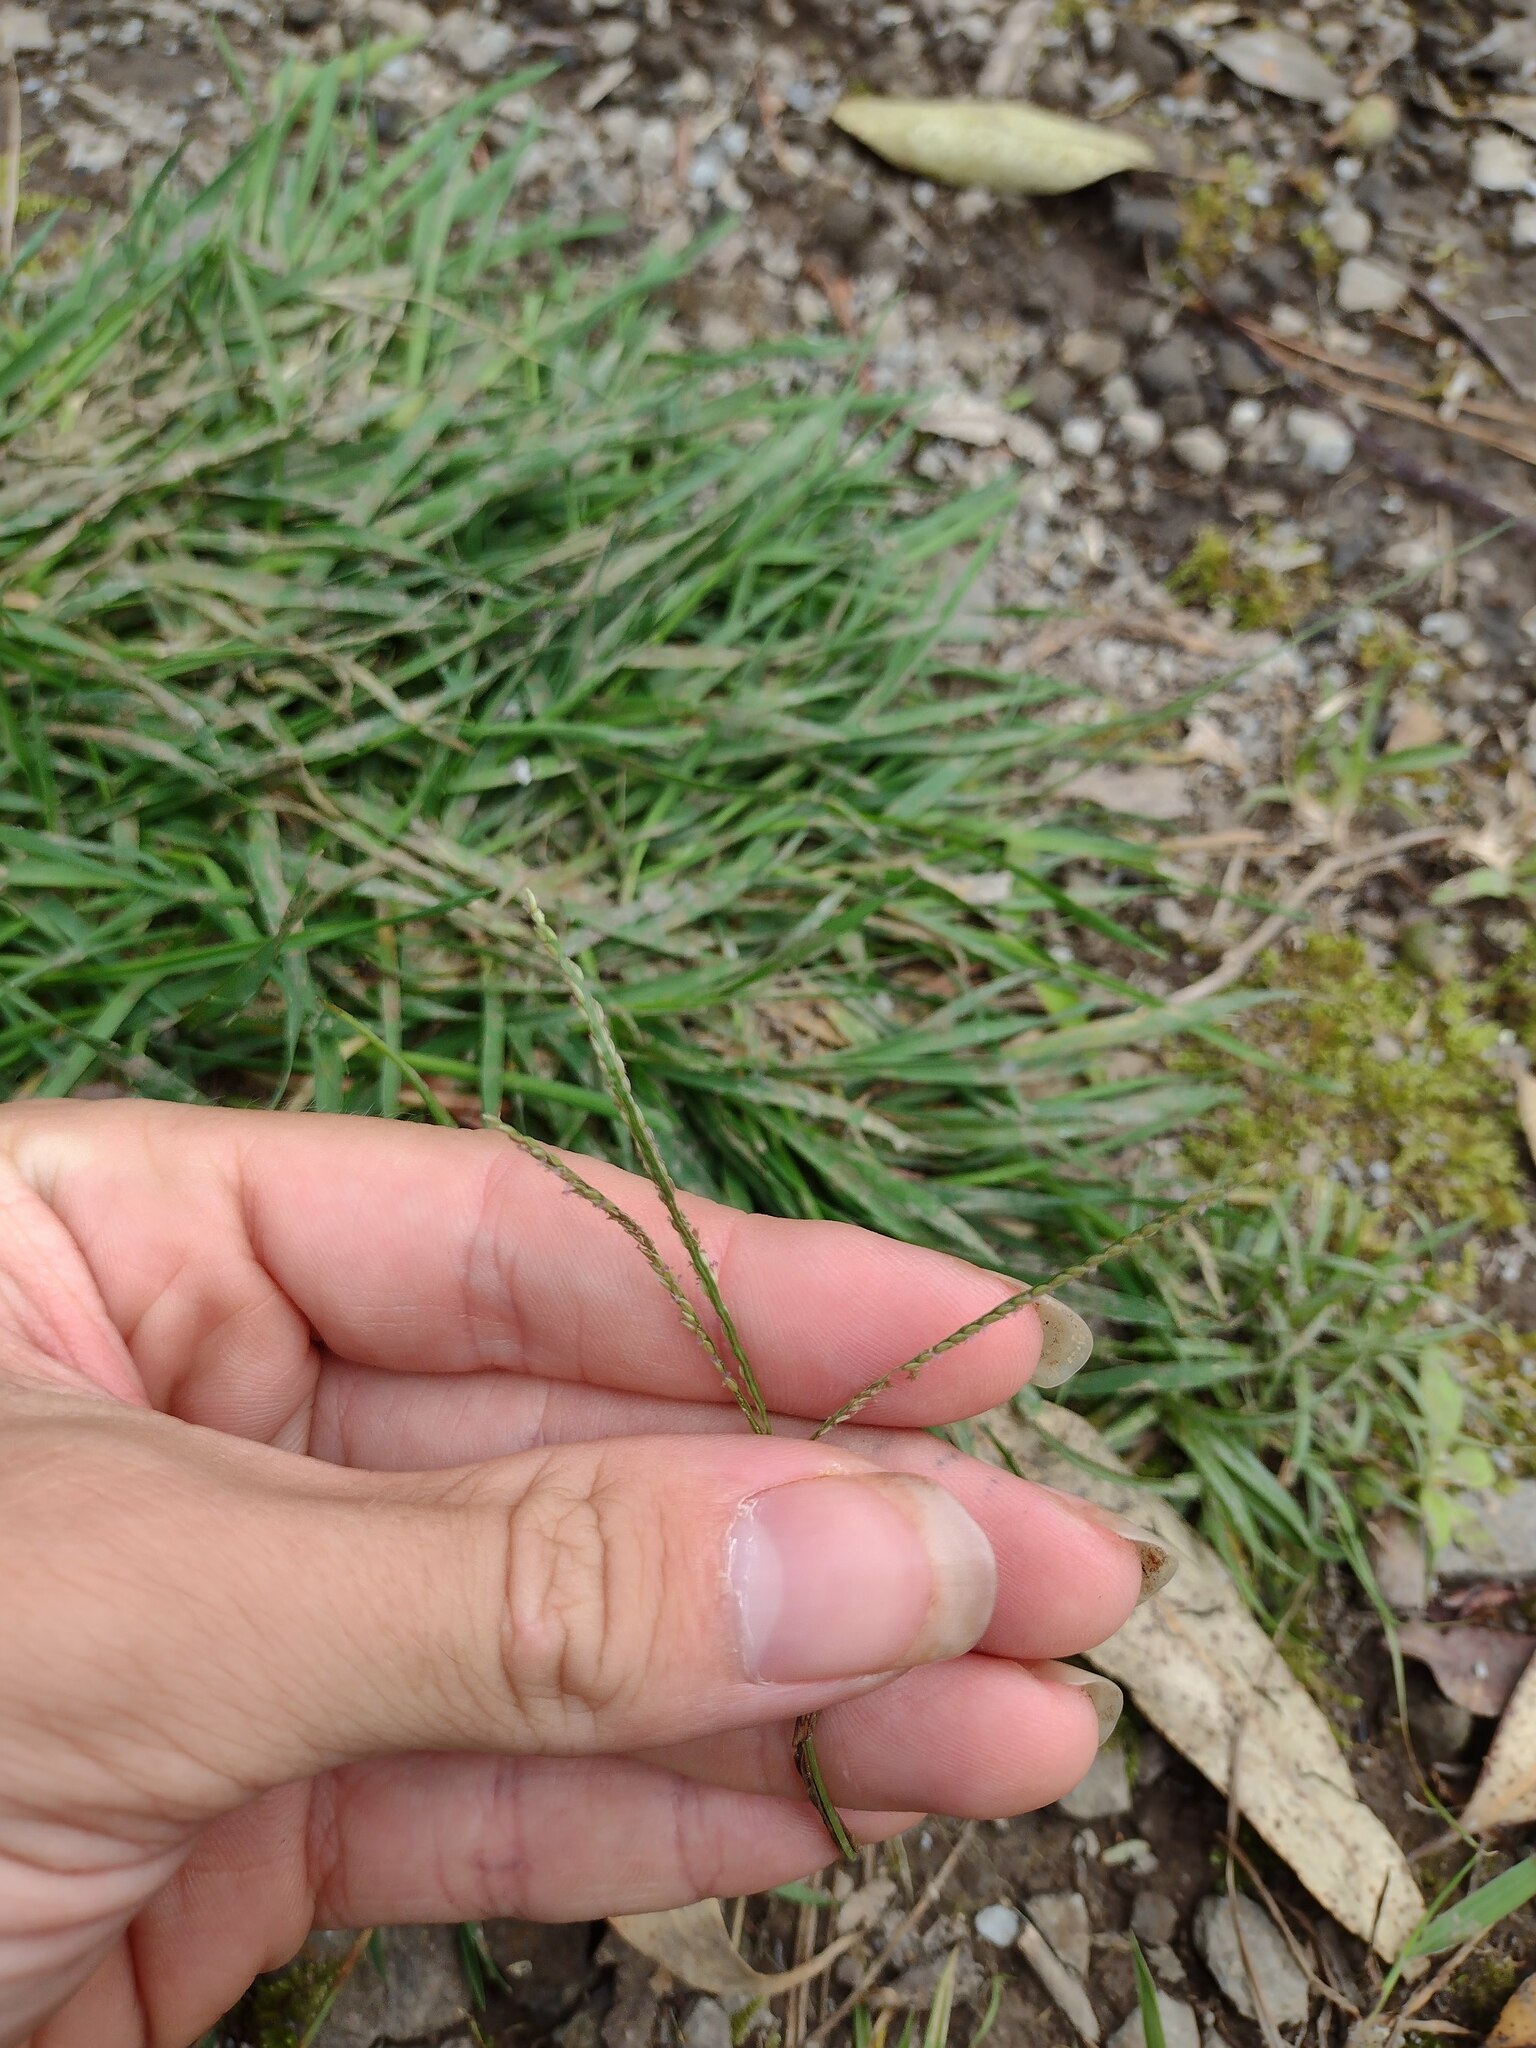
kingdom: Plantae
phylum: Tracheophyta
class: Liliopsida
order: Poales
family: Poaceae
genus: Digitaria
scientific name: Digitaria violascens
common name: Violet crabgrass
